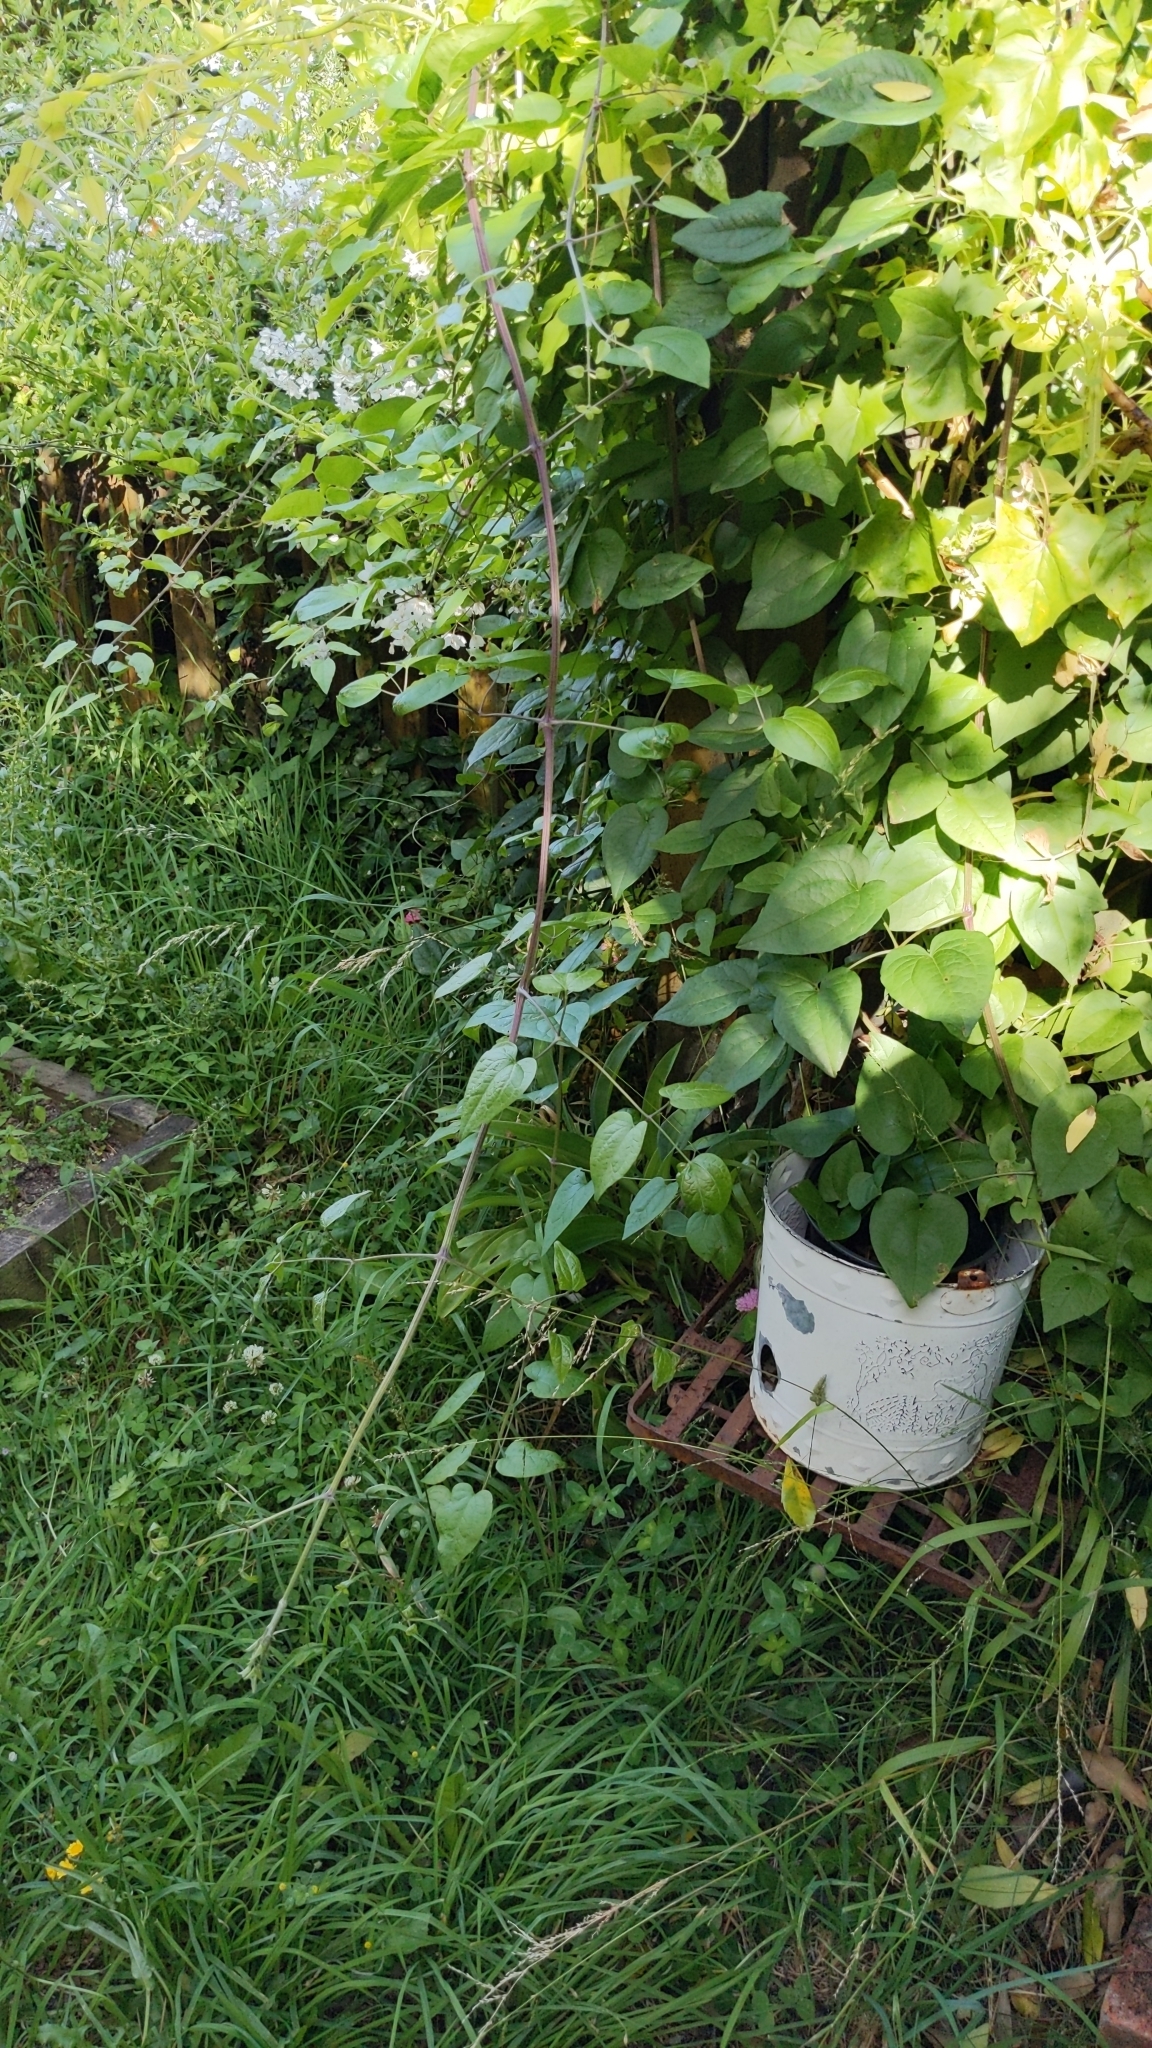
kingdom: Plantae
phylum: Tracheophyta
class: Magnoliopsida
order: Ranunculales
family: Ranunculaceae
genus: Clematis
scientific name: Clematis vitalba
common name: Evergreen clematis
